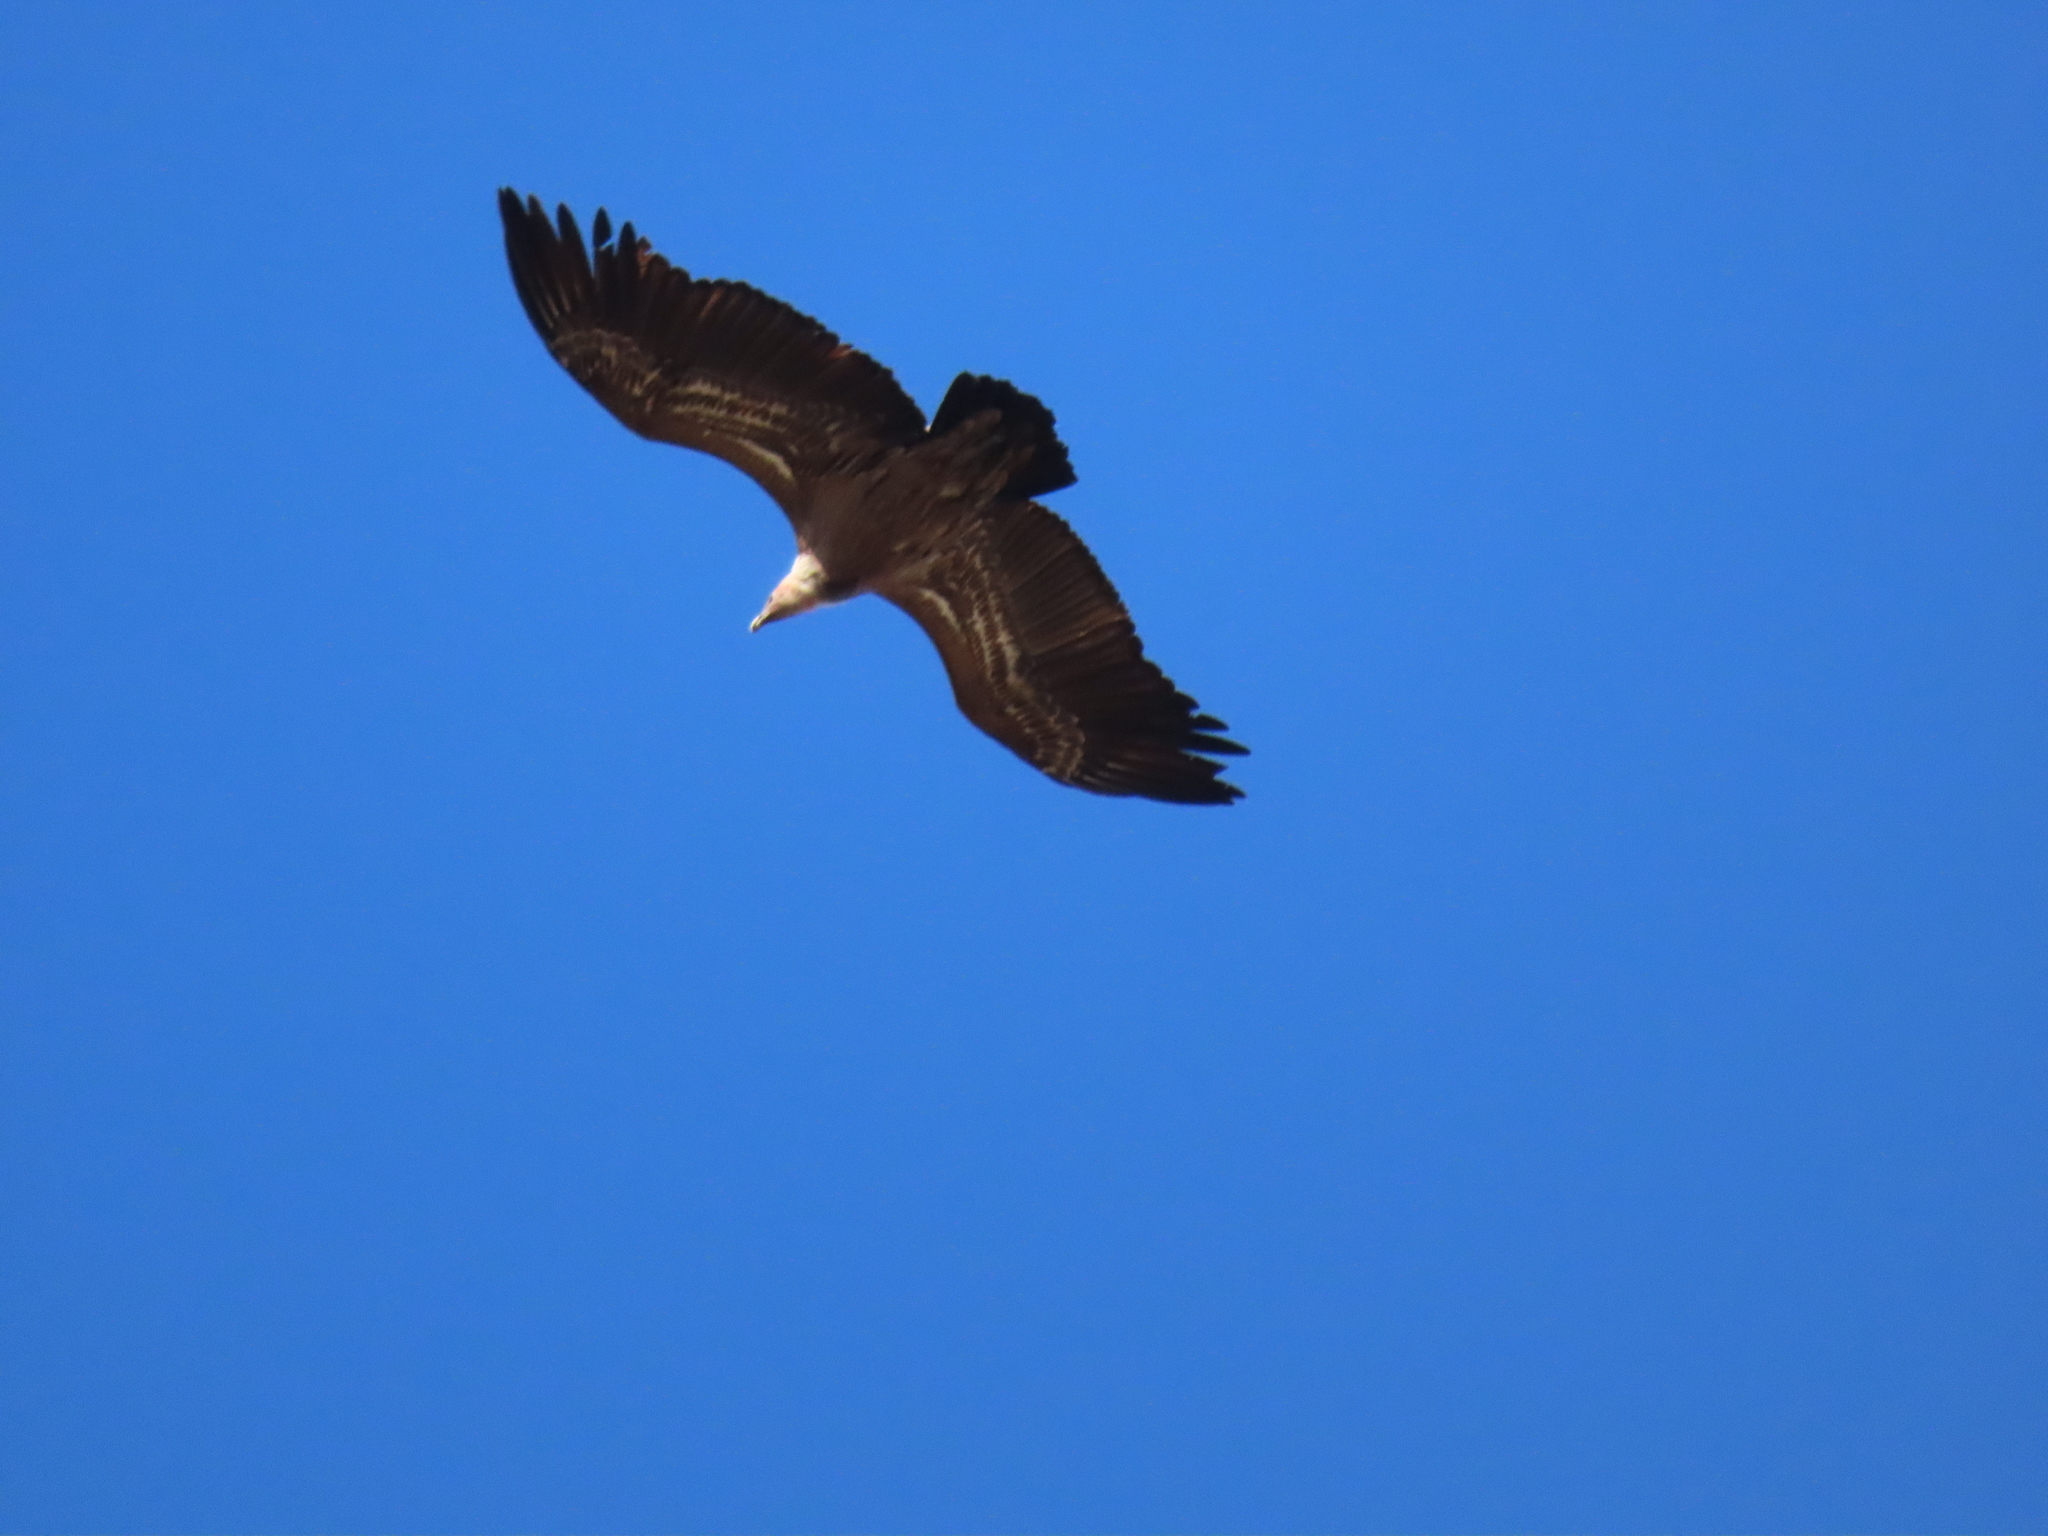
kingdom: Animalia
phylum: Chordata
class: Aves
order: Accipitriformes
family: Accipitridae
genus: Gyps
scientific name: Gyps fulvus
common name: Griffon vulture
